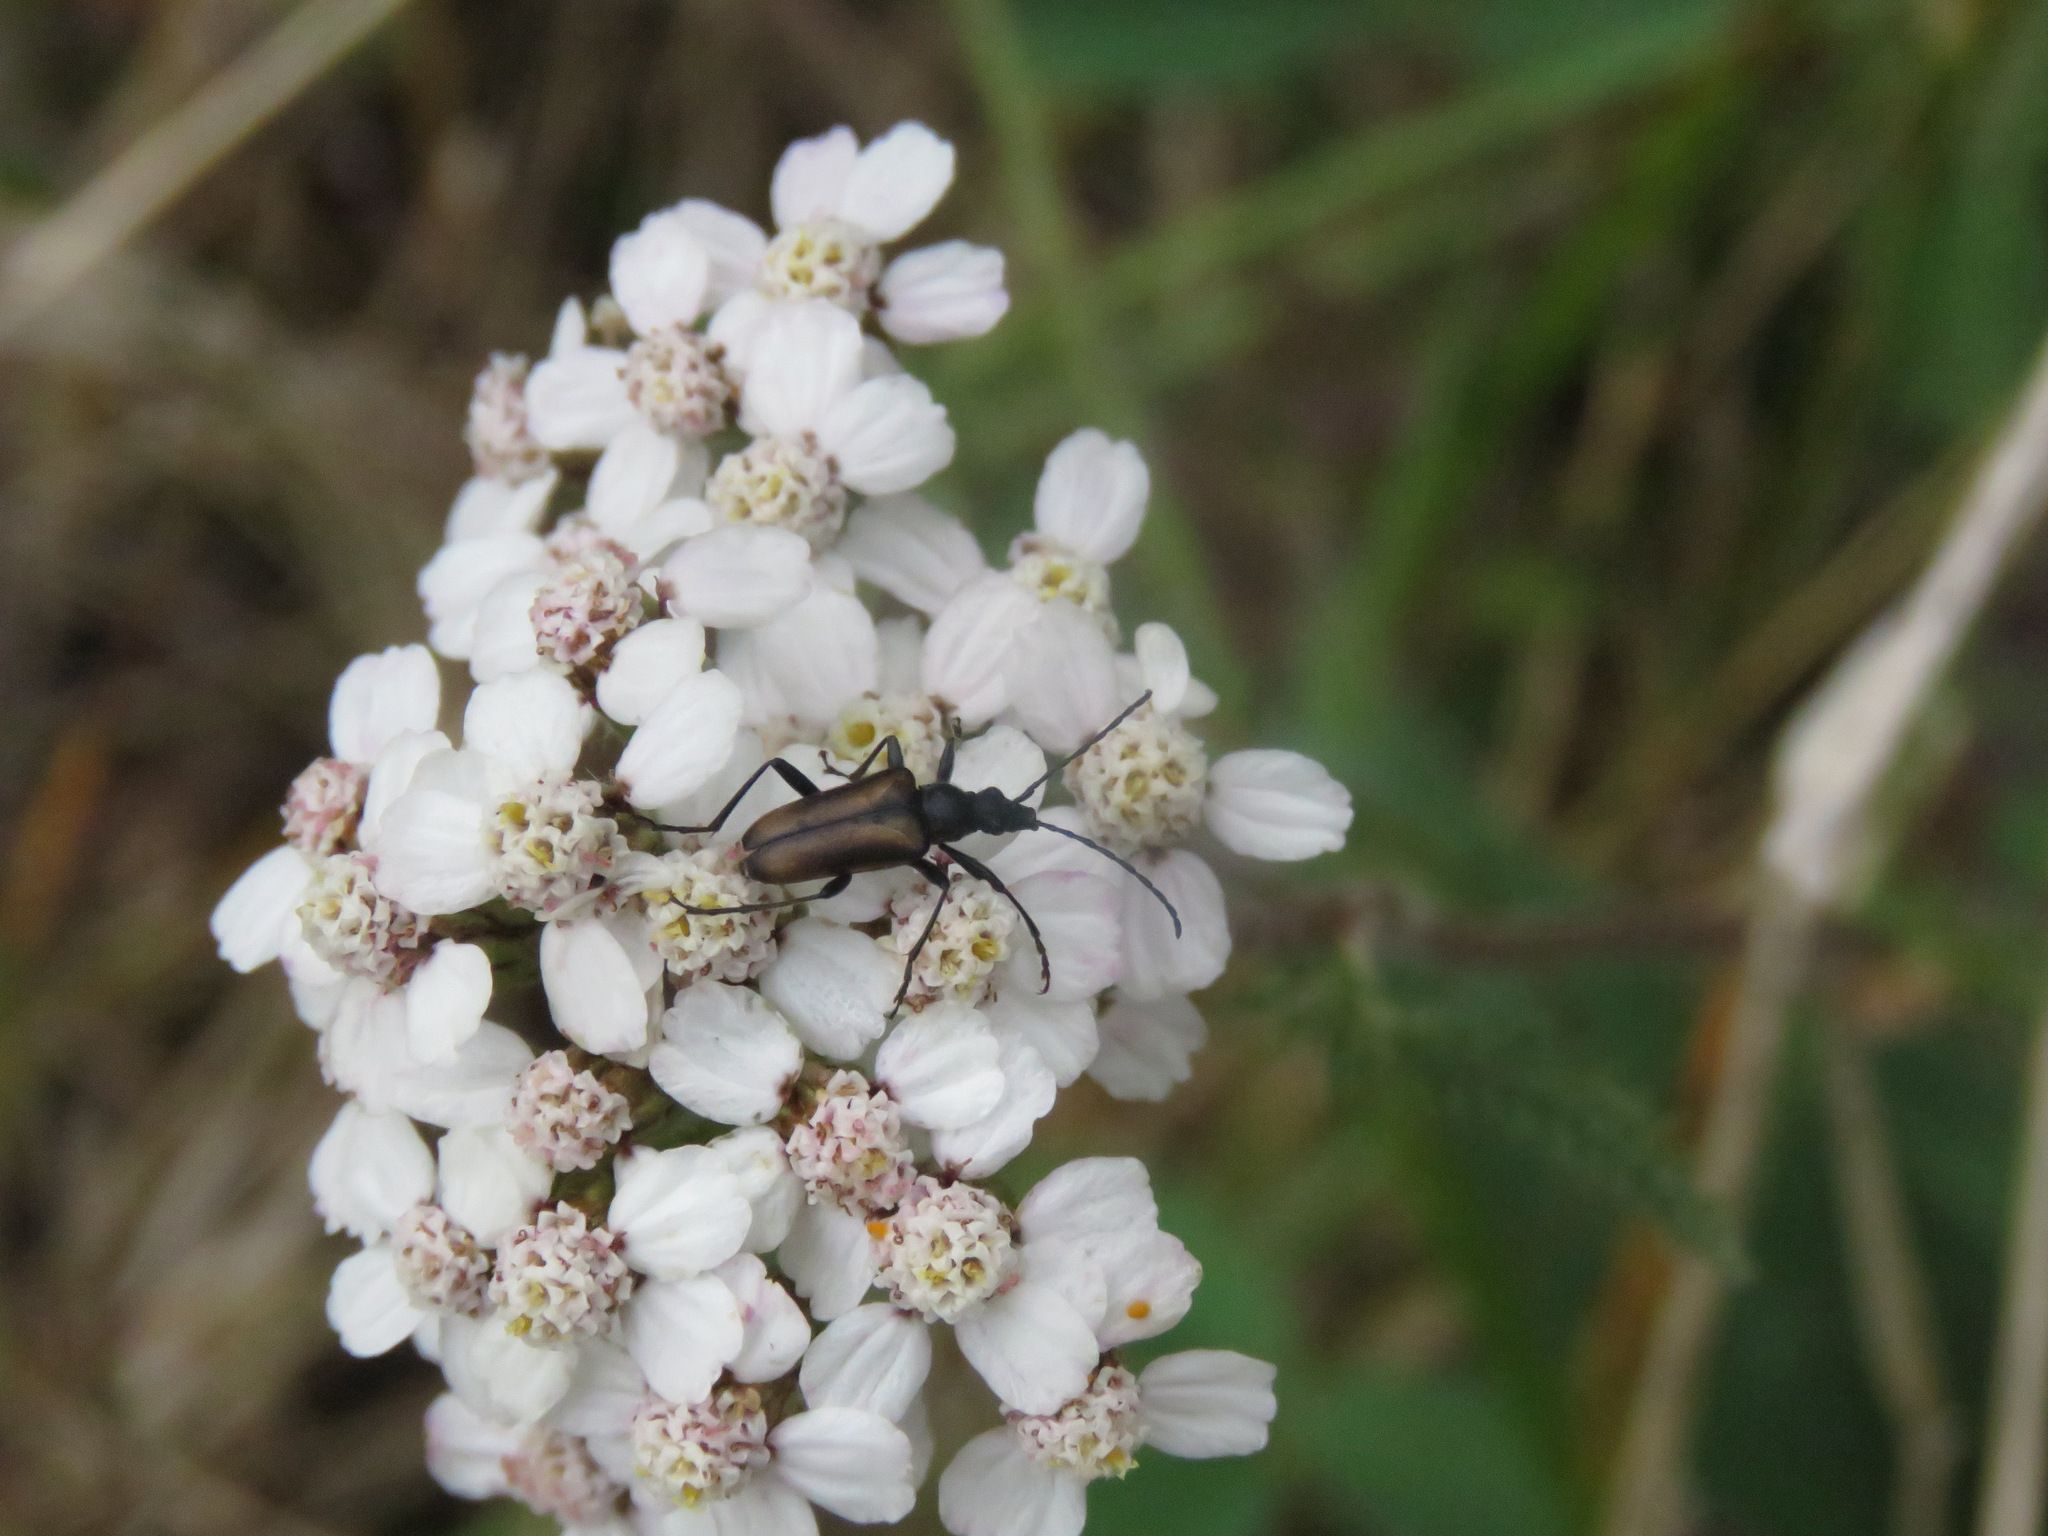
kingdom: Animalia
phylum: Arthropoda
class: Insecta
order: Coleoptera
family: Cerambycidae
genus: Gnathacmaeops
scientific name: Gnathacmaeops pratensis
